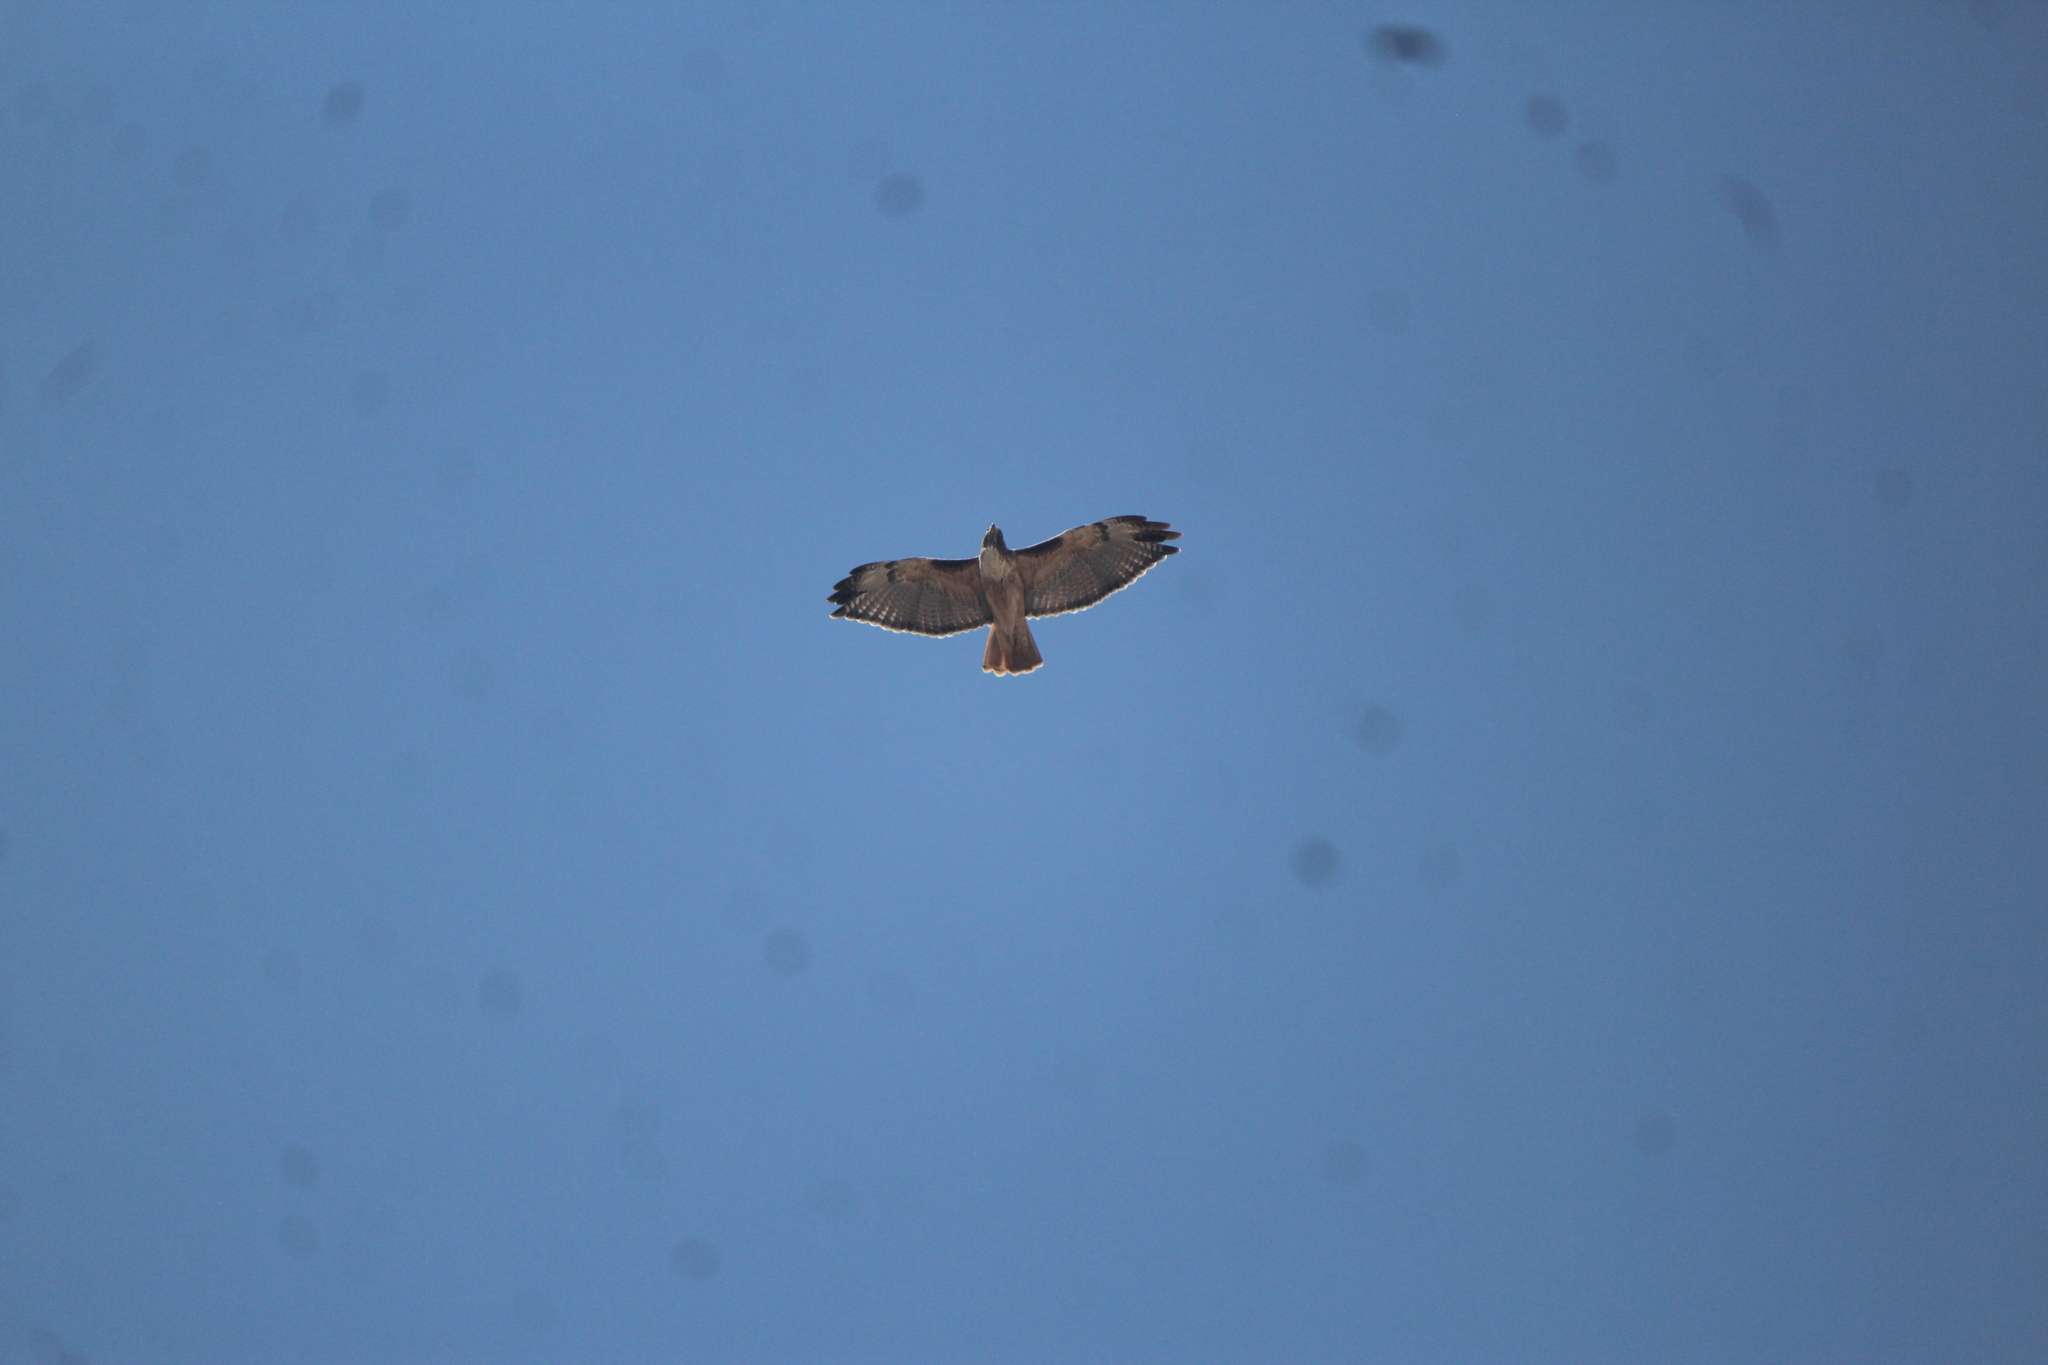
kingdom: Animalia
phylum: Chordata
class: Aves
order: Accipitriformes
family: Accipitridae
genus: Buteo
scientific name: Buteo jamaicensis
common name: Red-tailed hawk
